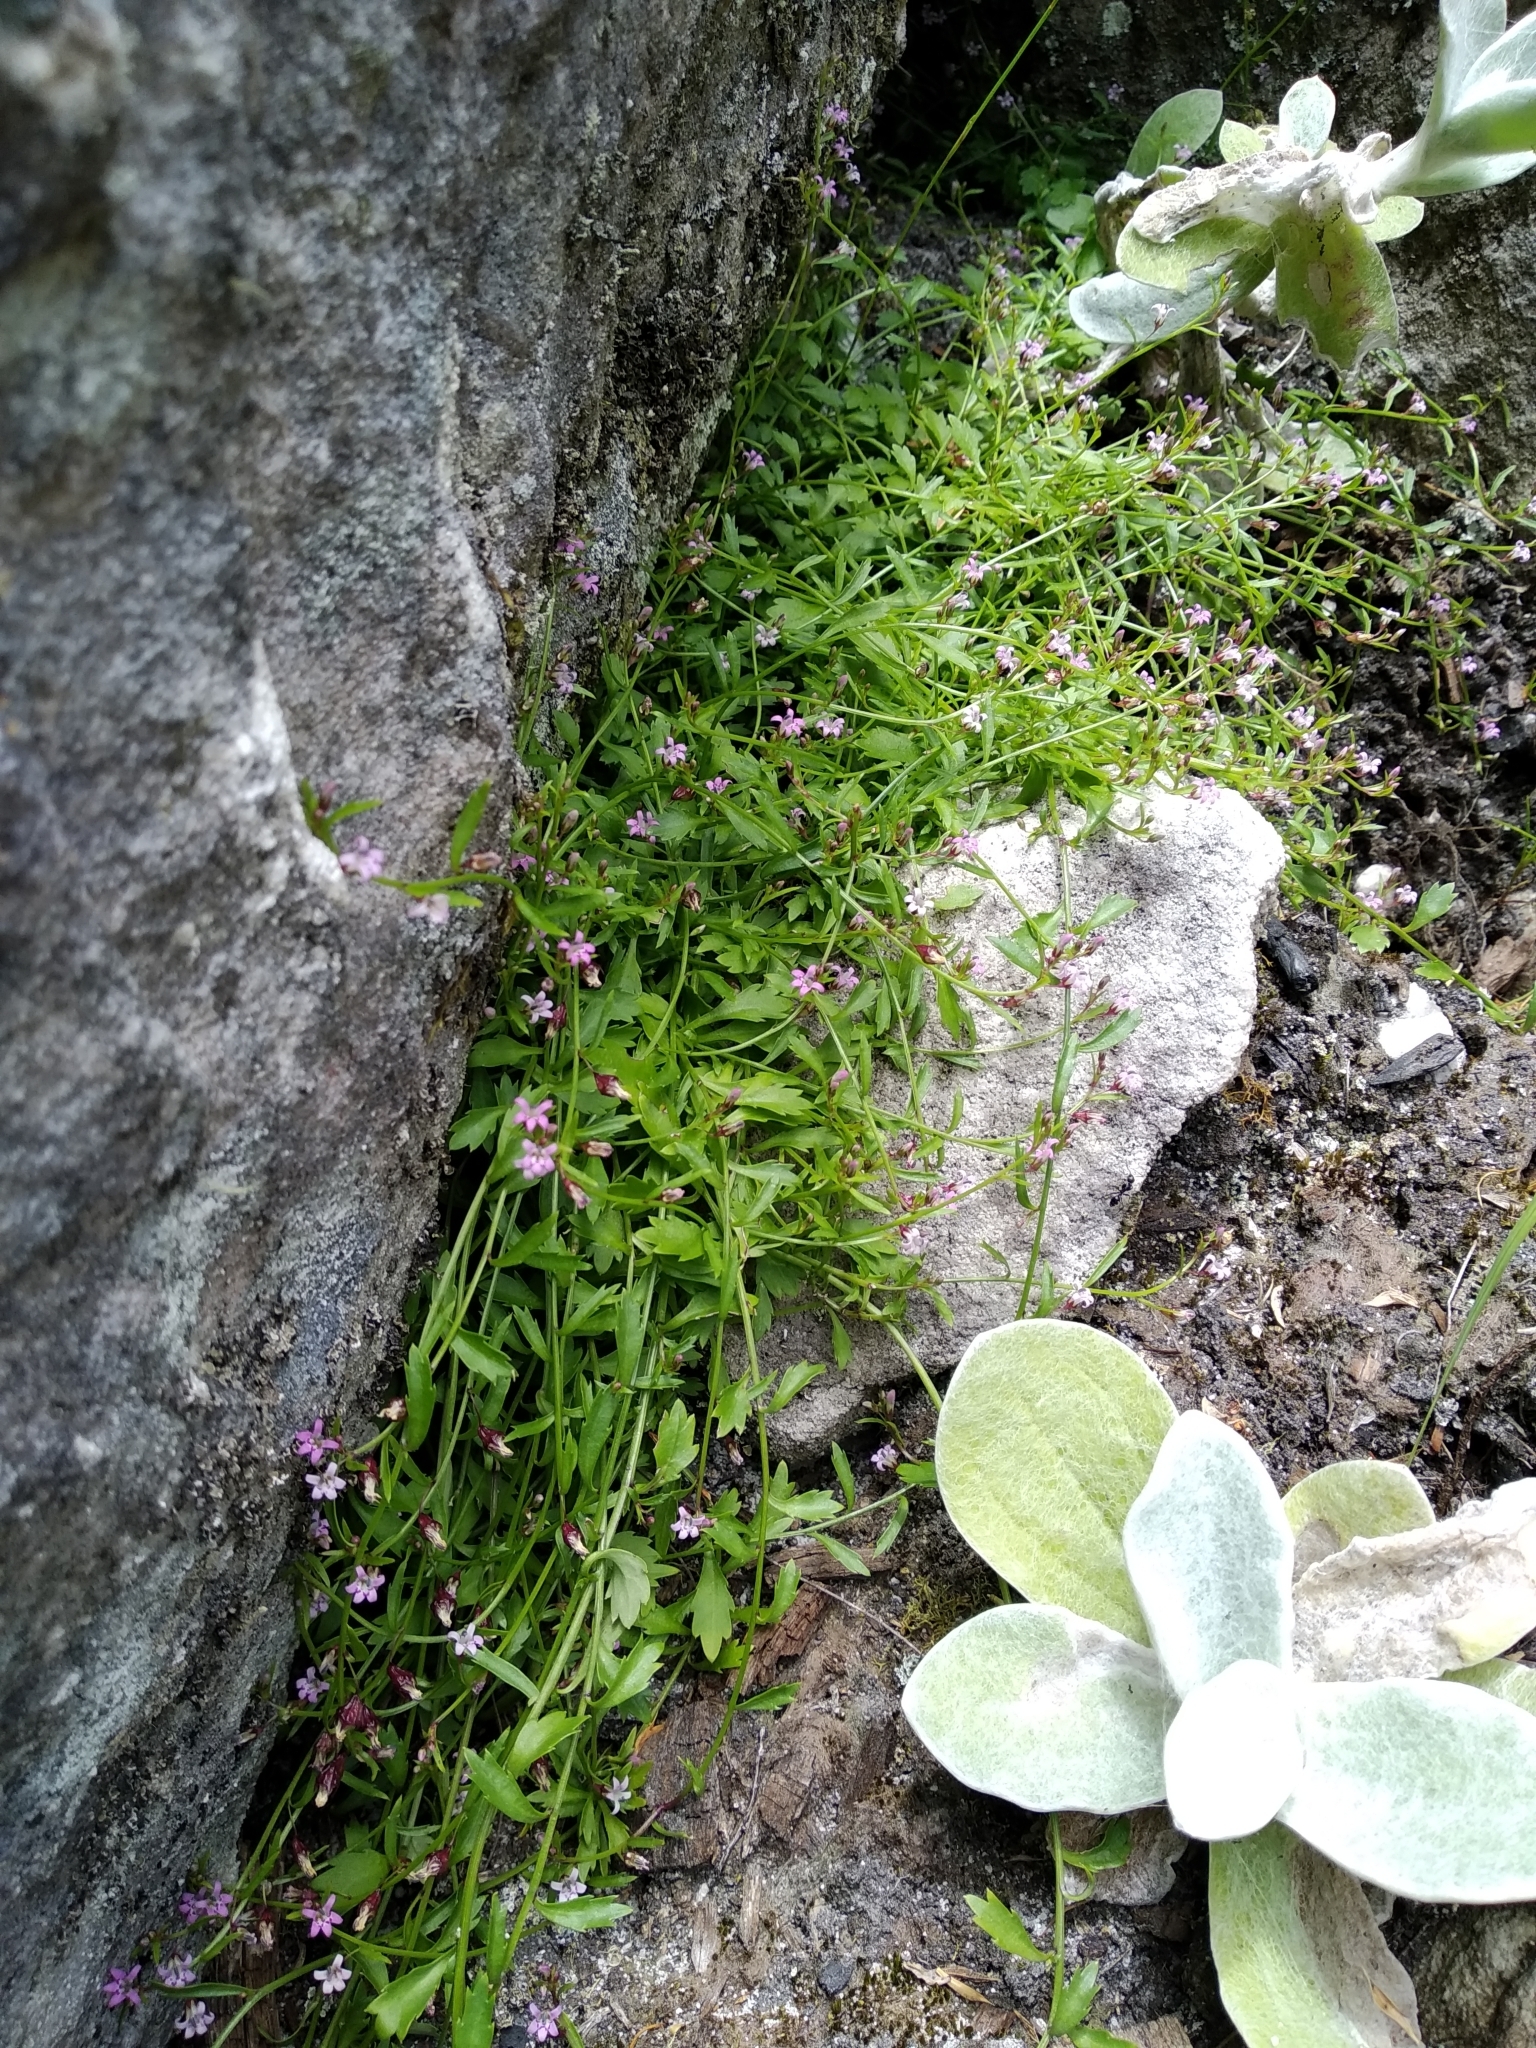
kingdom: Plantae
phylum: Tracheophyta
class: Magnoliopsida
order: Asterales
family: Campanulaceae
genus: Lobelia
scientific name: Lobelia eckloniana
